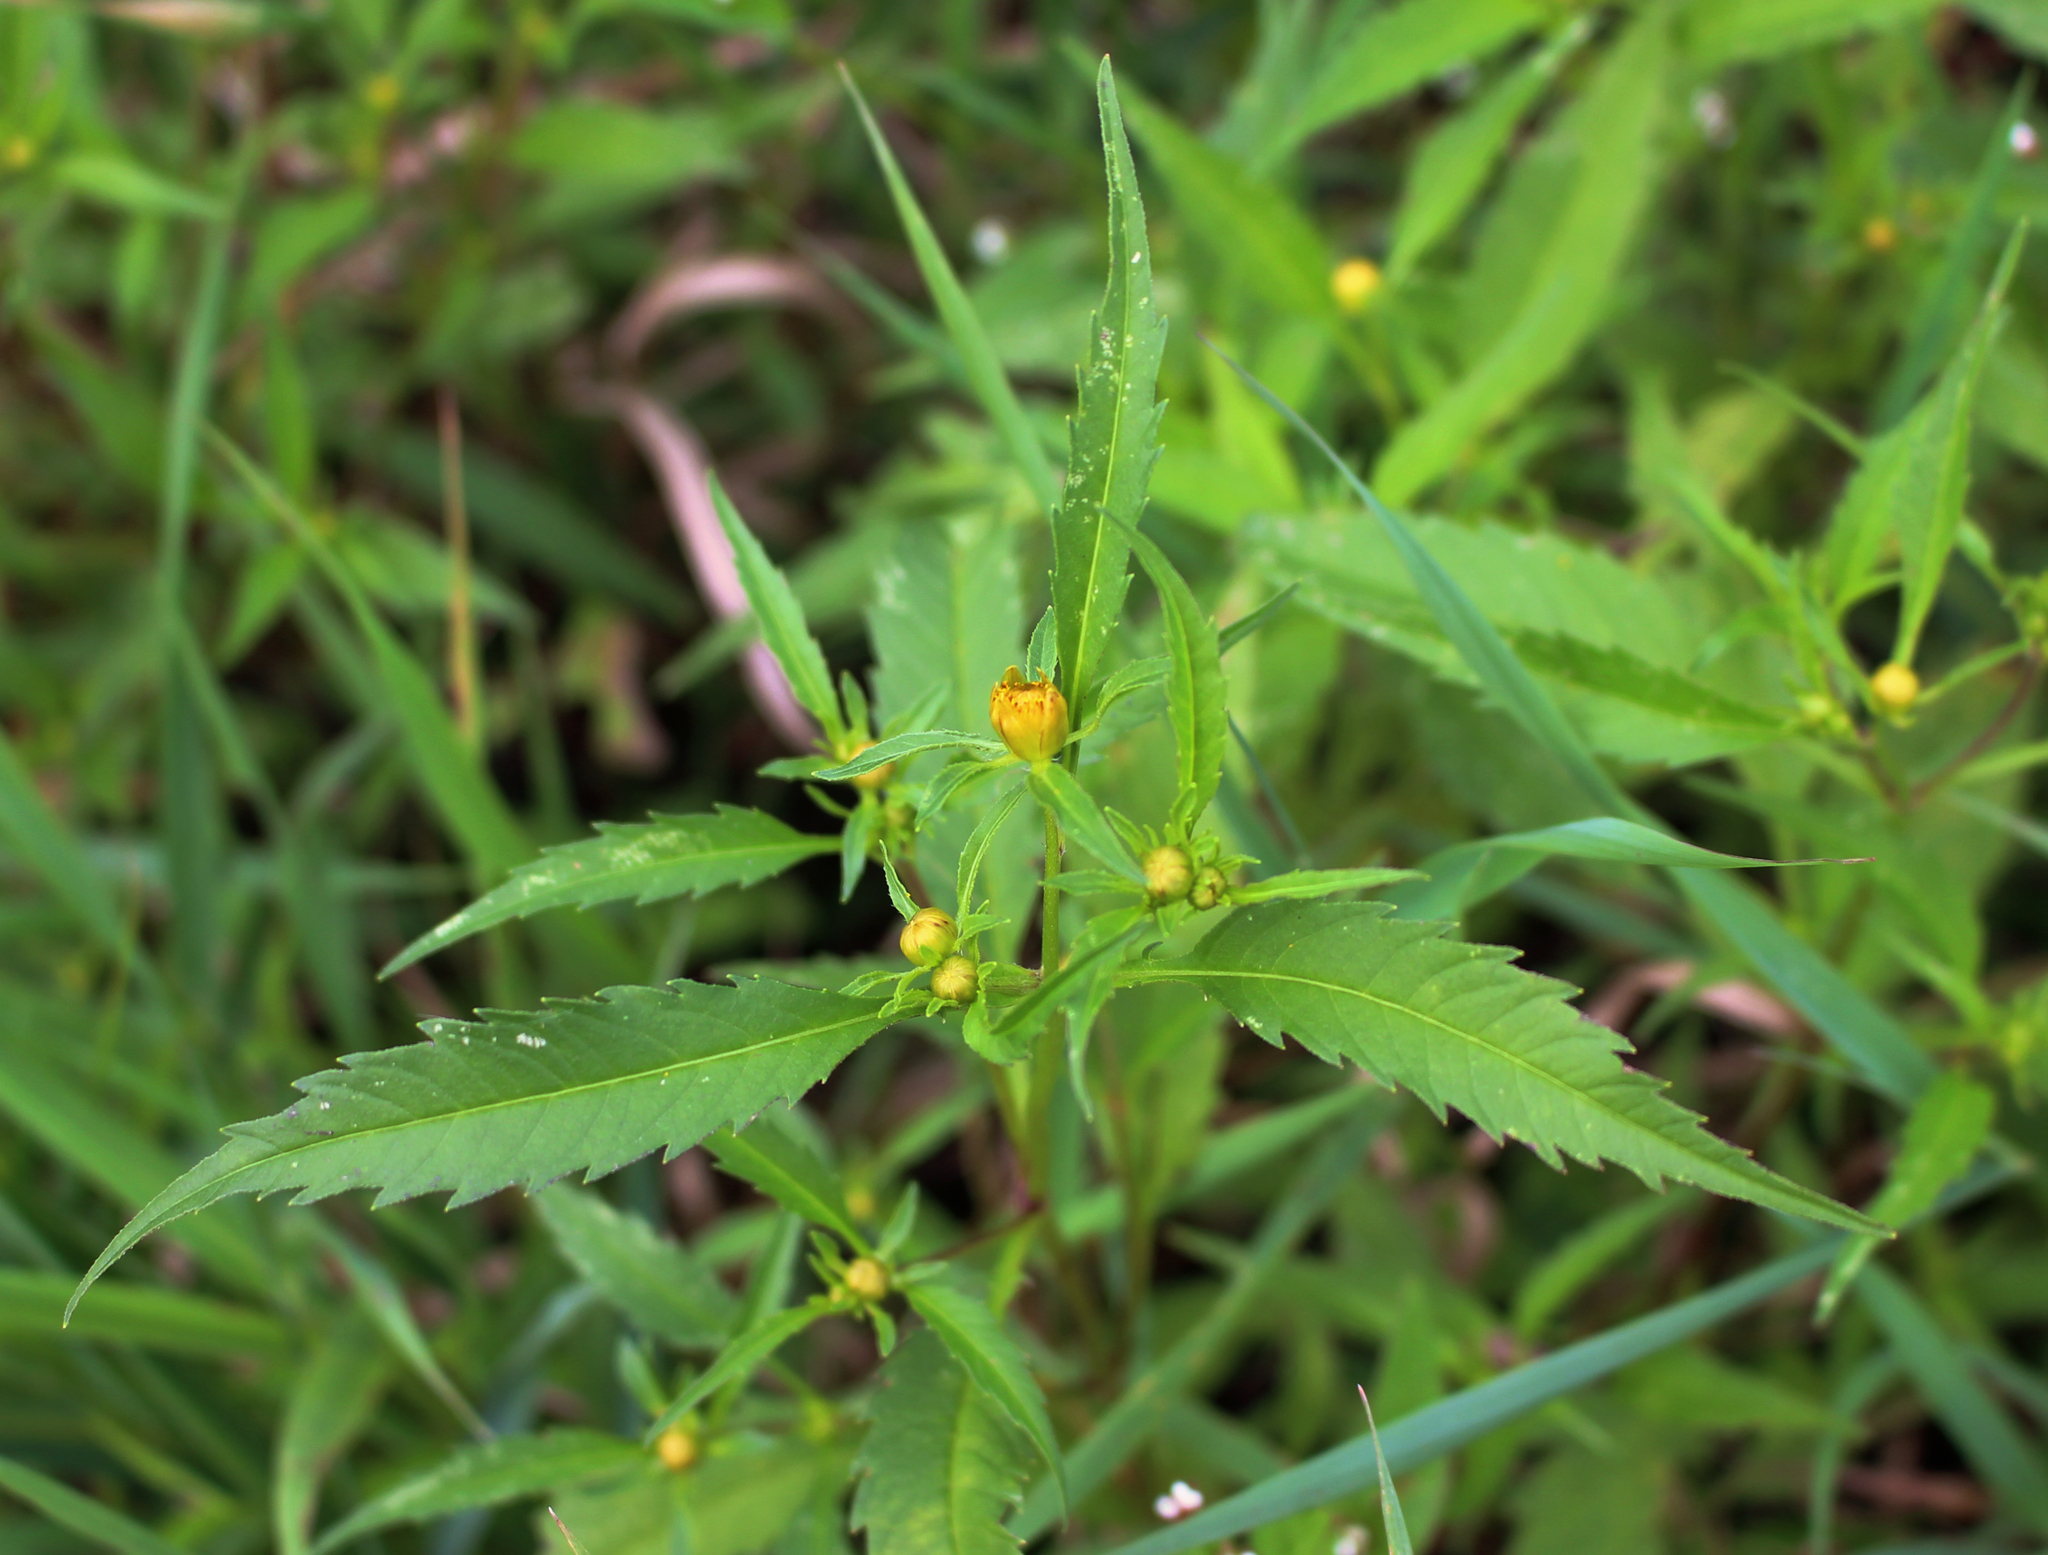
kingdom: Plantae
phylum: Tracheophyta
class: Magnoliopsida
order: Asterales
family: Asteraceae
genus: Bidens
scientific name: Bidens connata
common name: London bur-marigold
